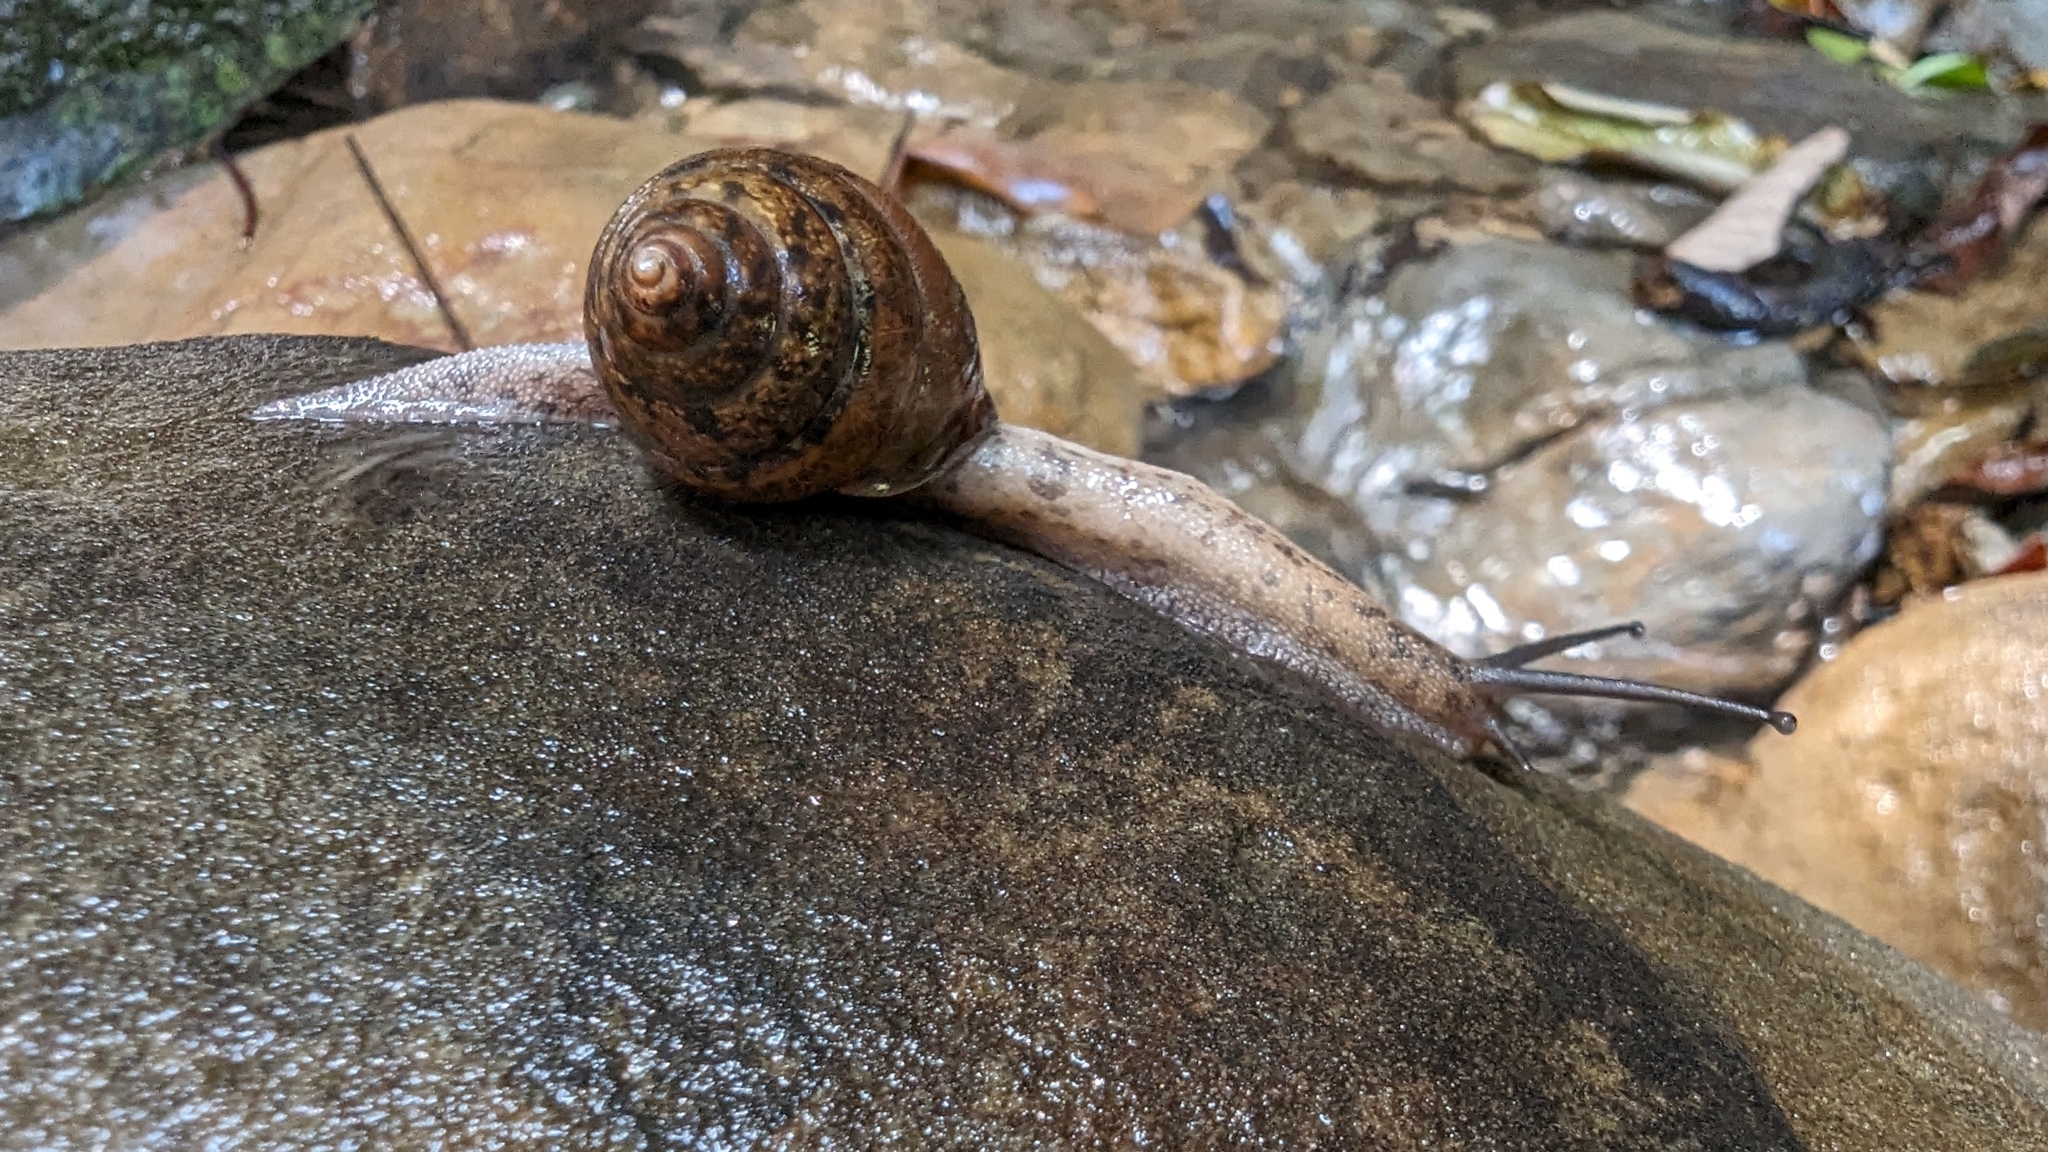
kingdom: Animalia
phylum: Mollusca
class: Gastropoda
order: Stylommatophora
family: Camaenidae
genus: Satsuma
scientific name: Satsuma sphaeroconus
